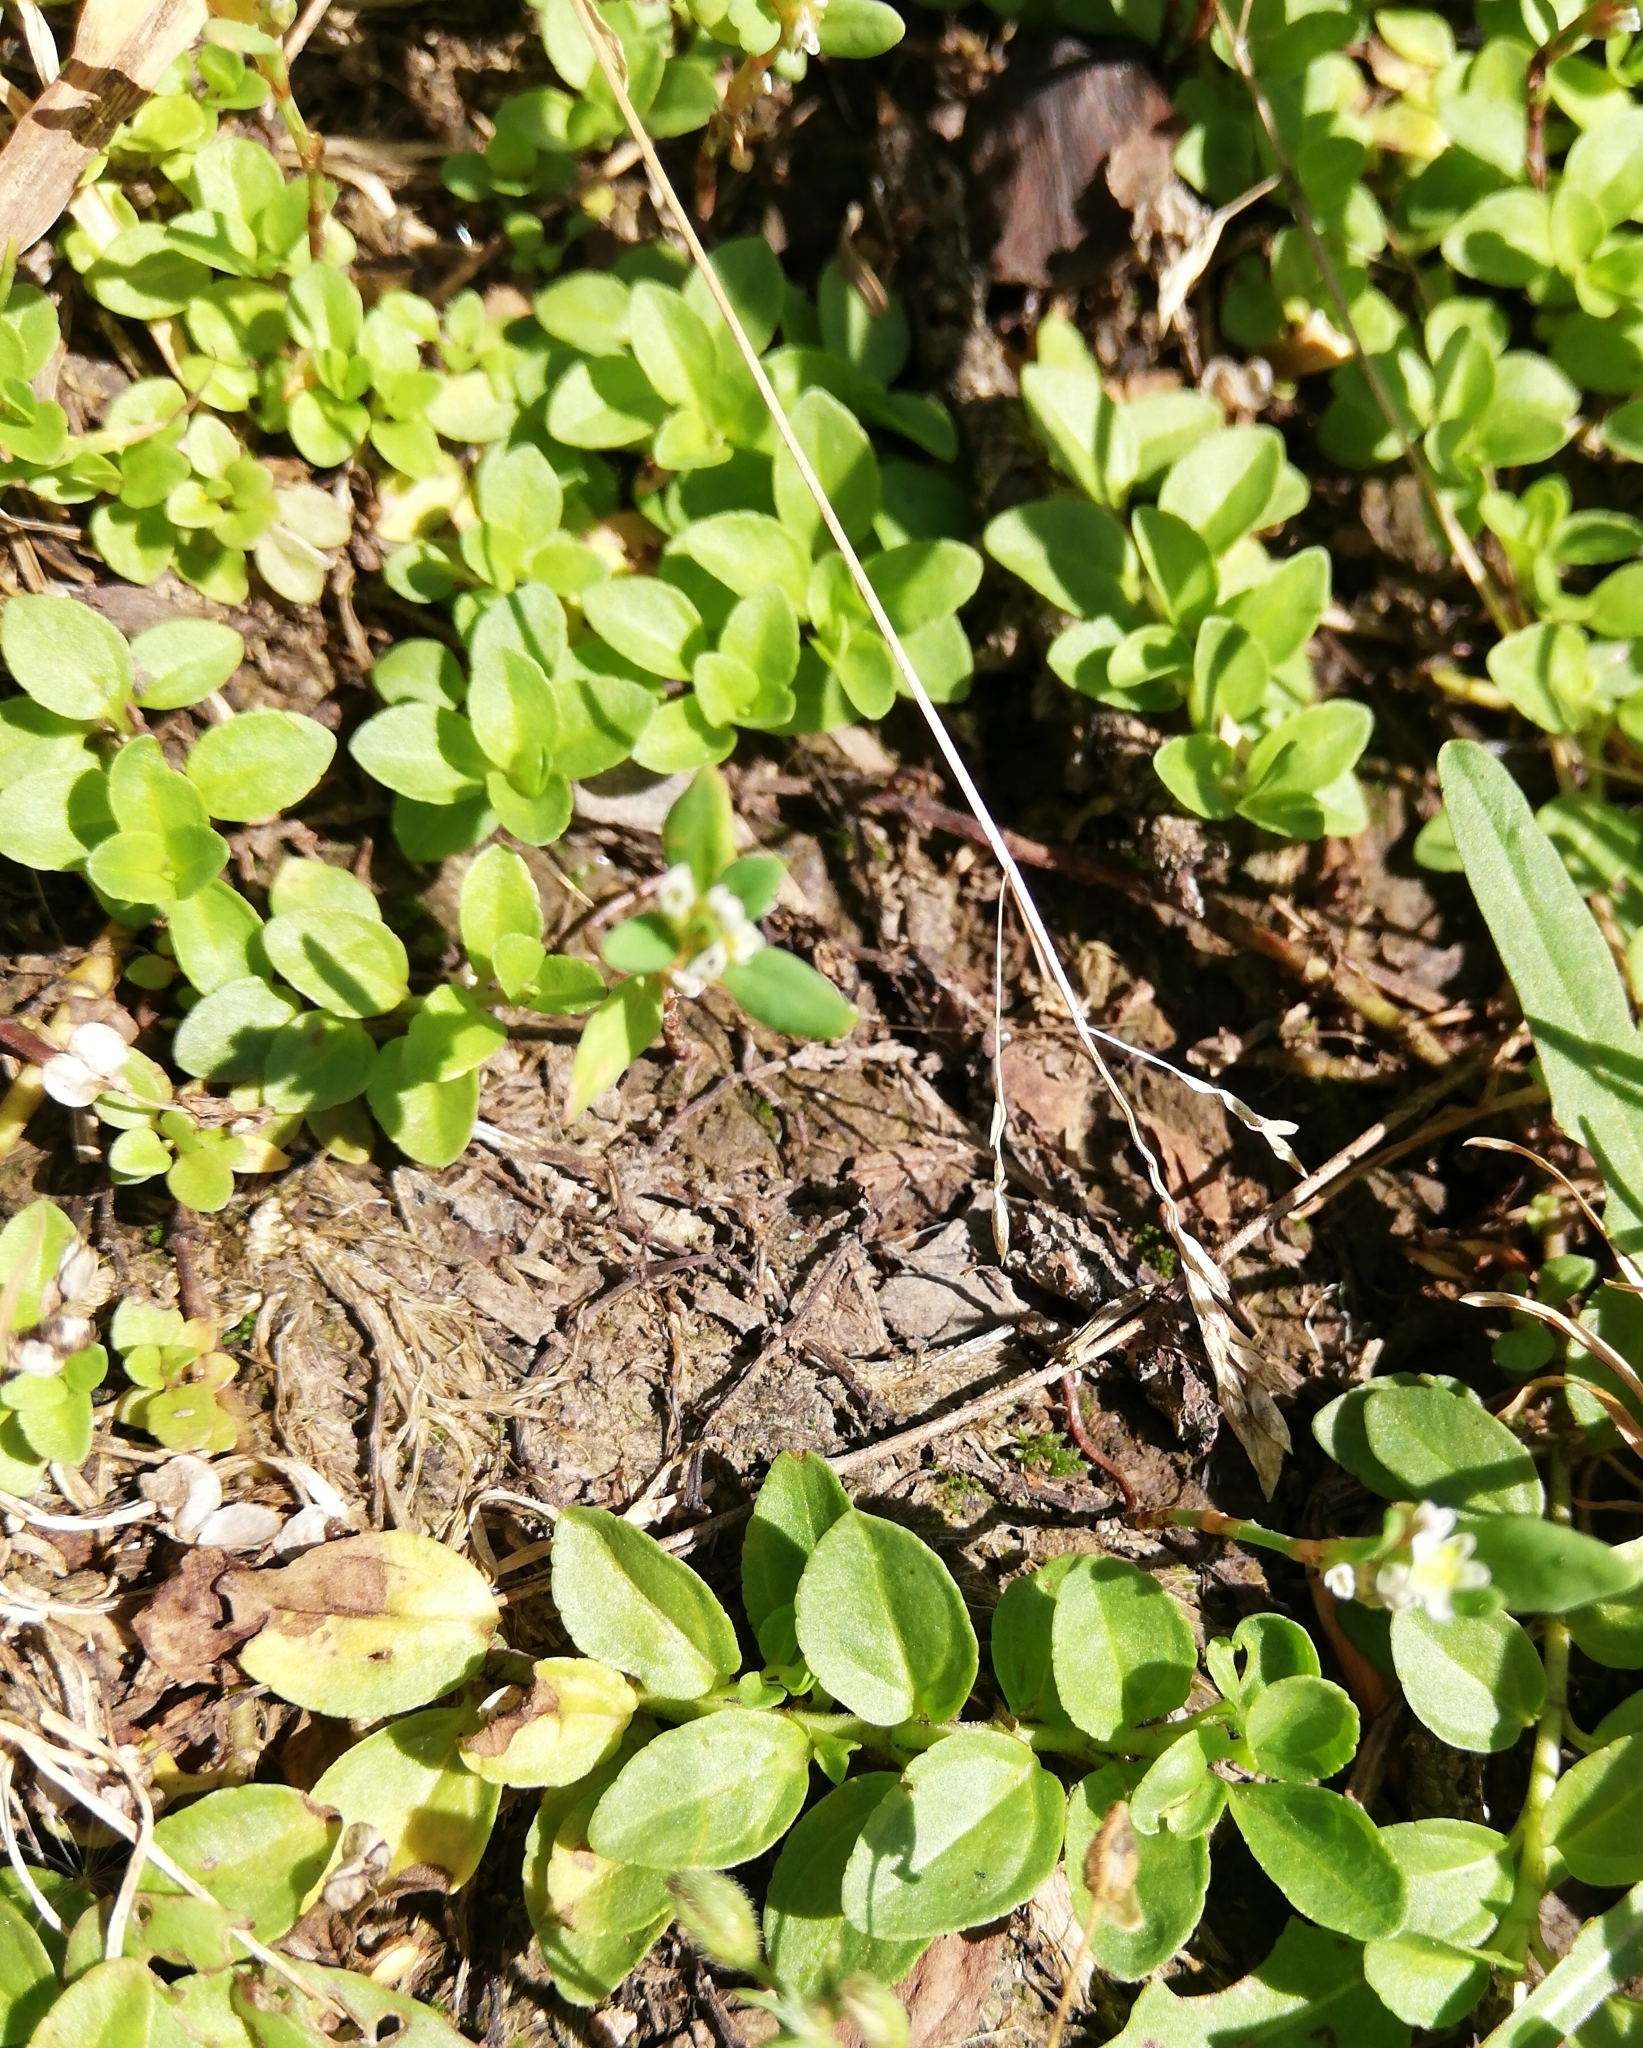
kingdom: Plantae
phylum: Tracheophyta
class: Magnoliopsida
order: Lamiales
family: Plantaginaceae
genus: Veronica
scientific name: Veronica serpyllifolia
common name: Thyme-leaved speedwell
